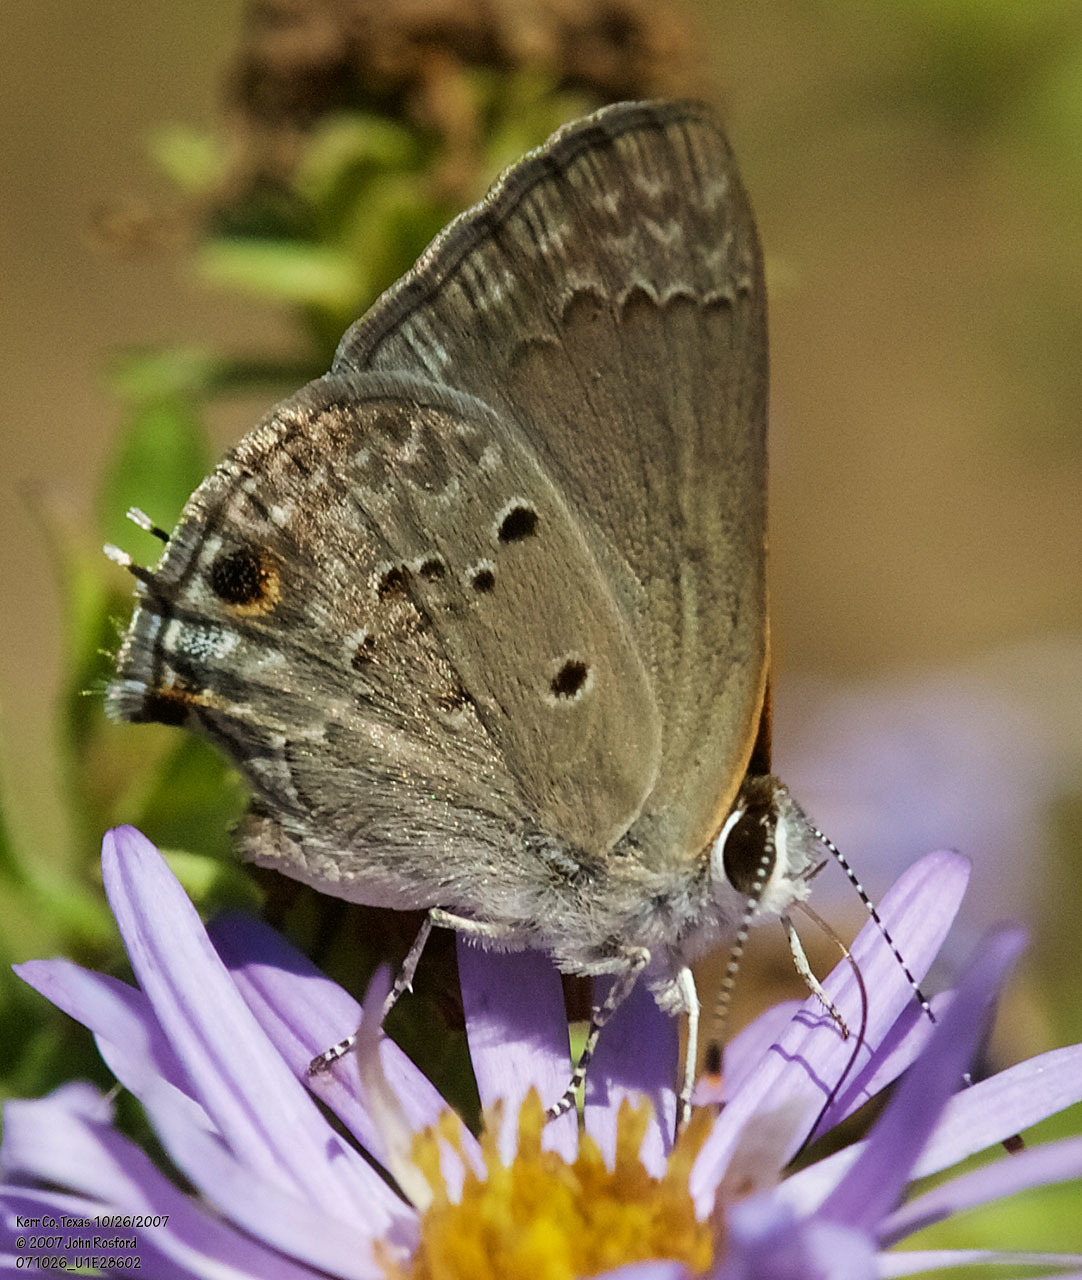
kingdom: Animalia
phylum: Arthropoda
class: Insecta
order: Lepidoptera
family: Lycaenidae
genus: Callicista
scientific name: Callicista columella
